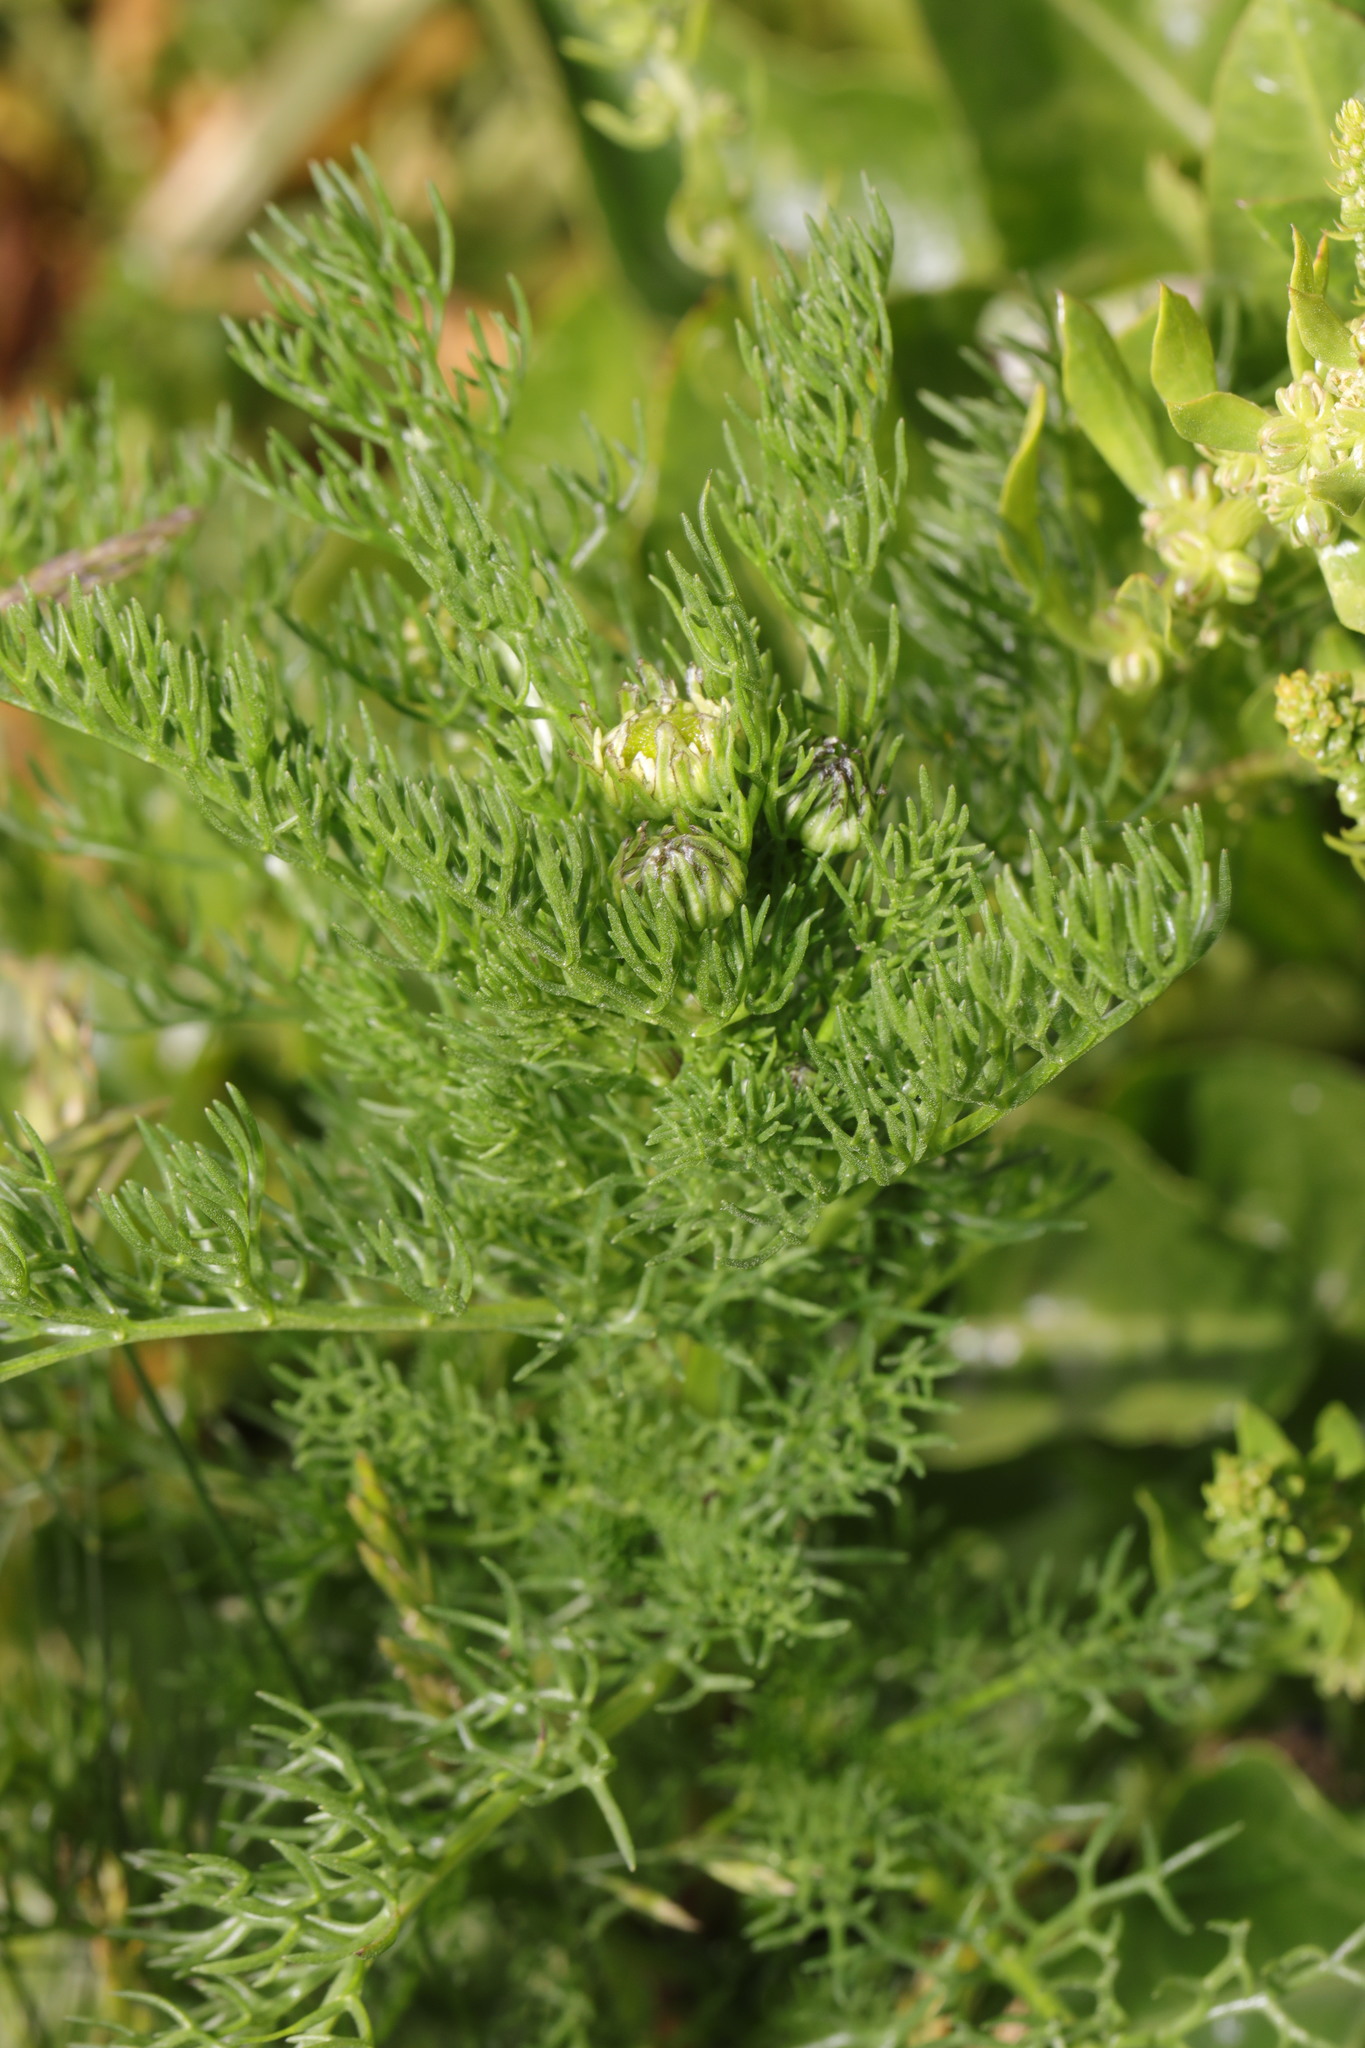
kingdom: Plantae
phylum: Tracheophyta
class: Magnoliopsida
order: Asterales
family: Asteraceae
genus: Tripleurospermum
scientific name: Tripleurospermum maritimum
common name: Sea mayweed
